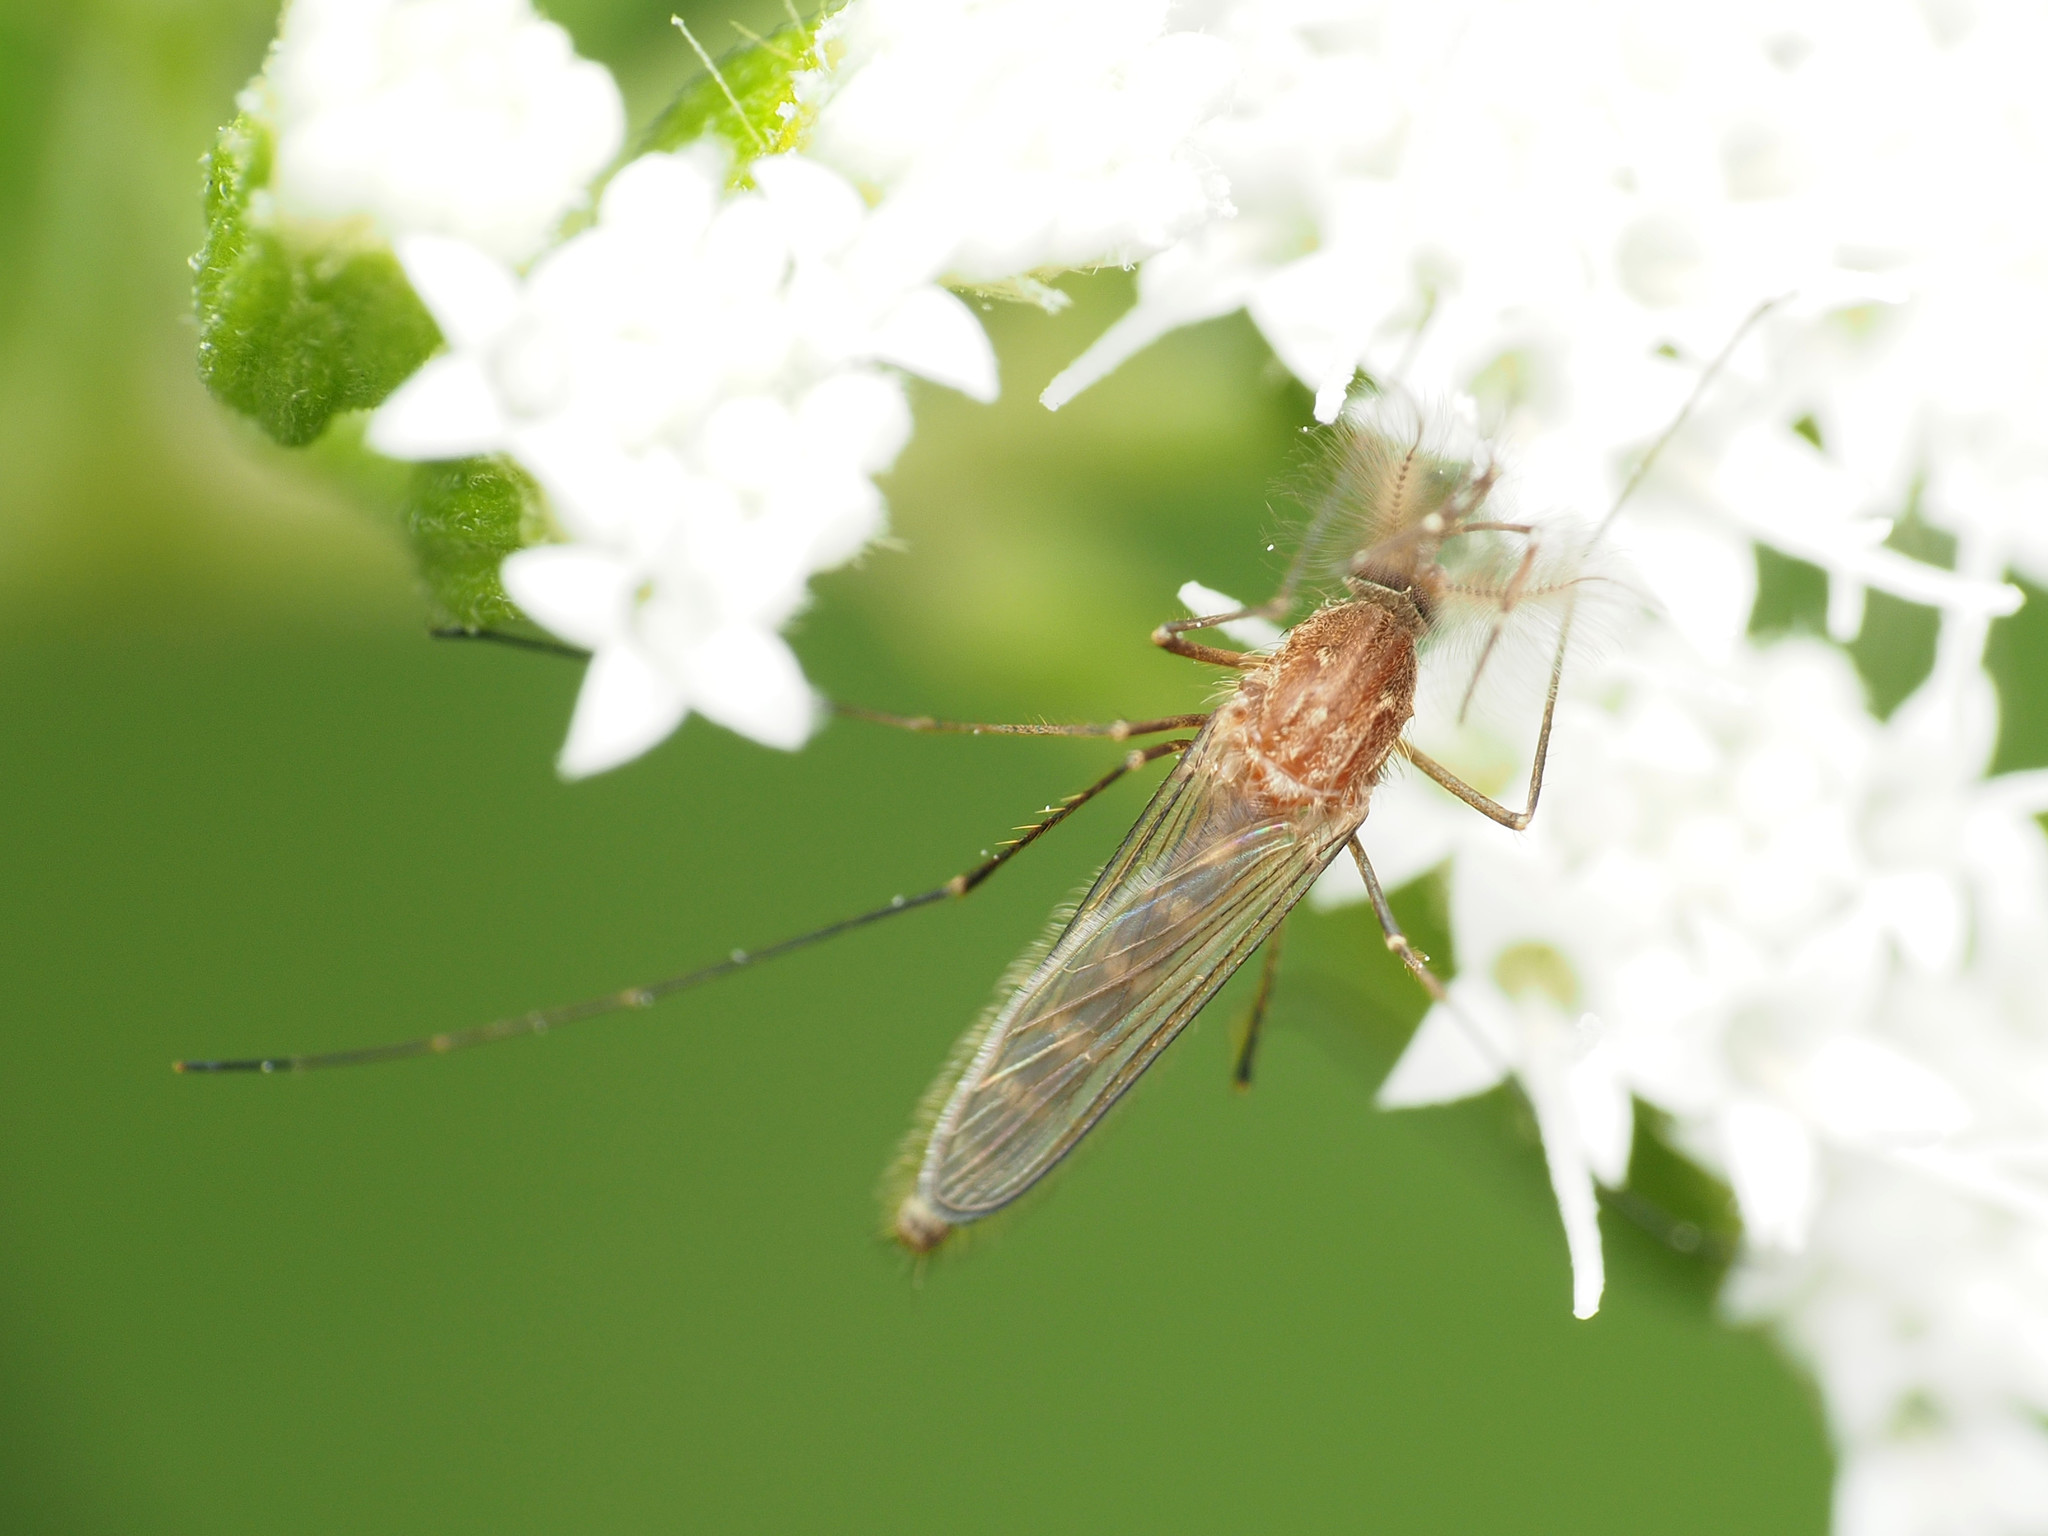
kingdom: Animalia
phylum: Arthropoda
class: Insecta
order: Diptera
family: Culicidae
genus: Culex
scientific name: Culex restuans
